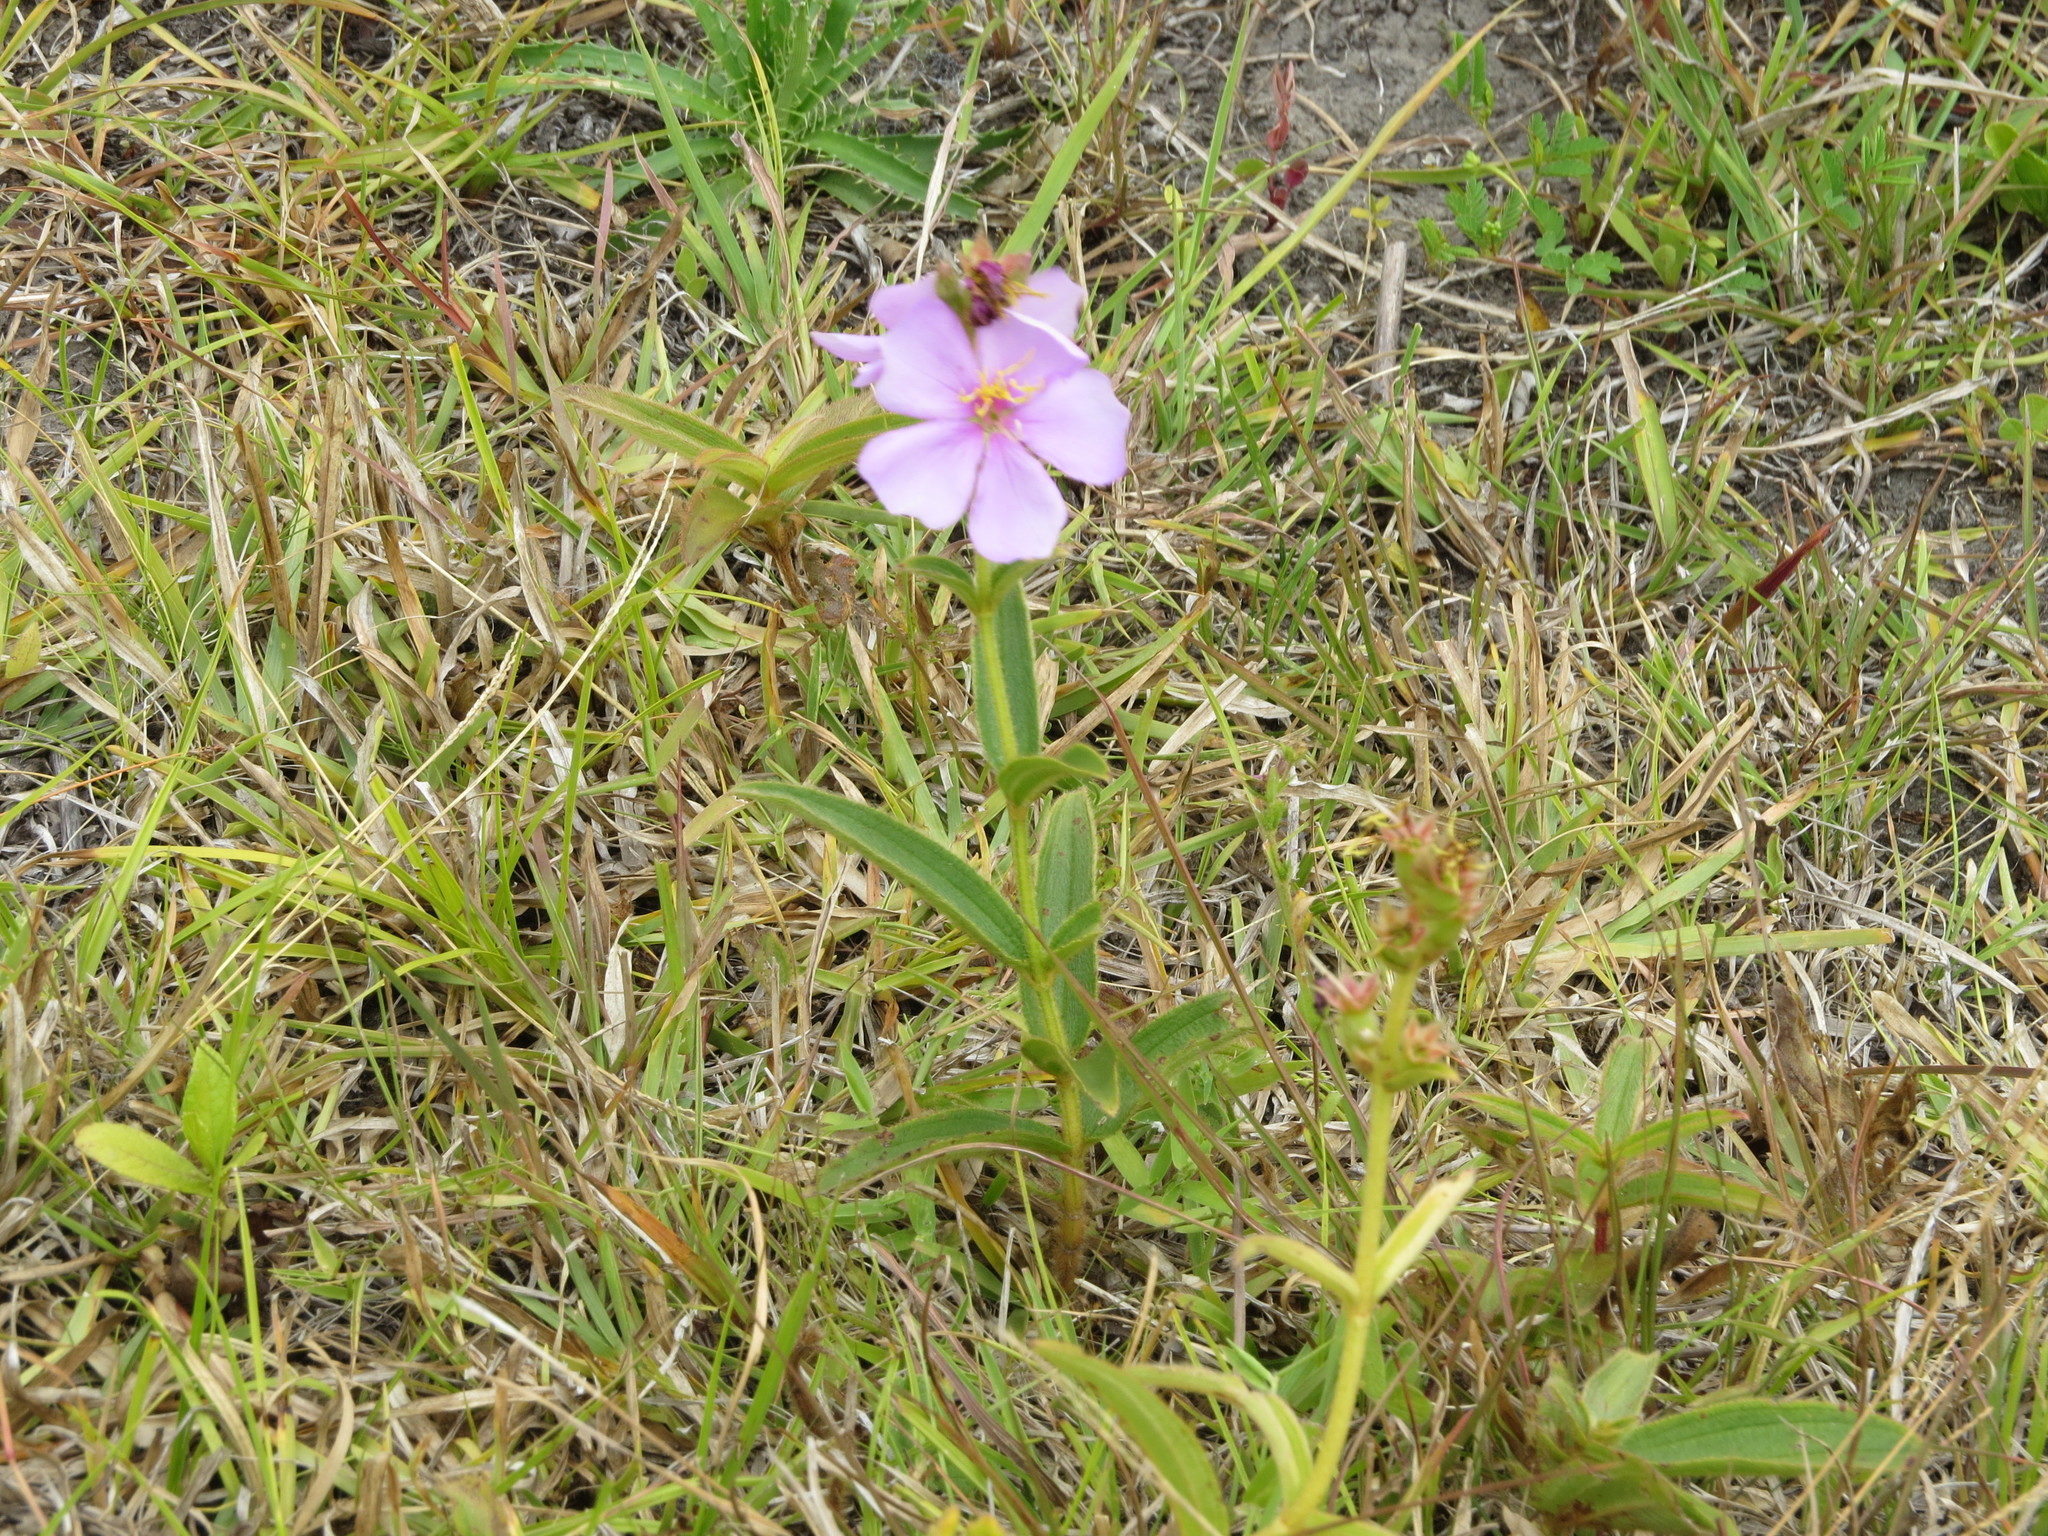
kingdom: Plantae
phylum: Tracheophyta
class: Magnoliopsida
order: Myrtales
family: Melastomataceae
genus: Chaetogastra
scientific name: Chaetogastra gracilis
